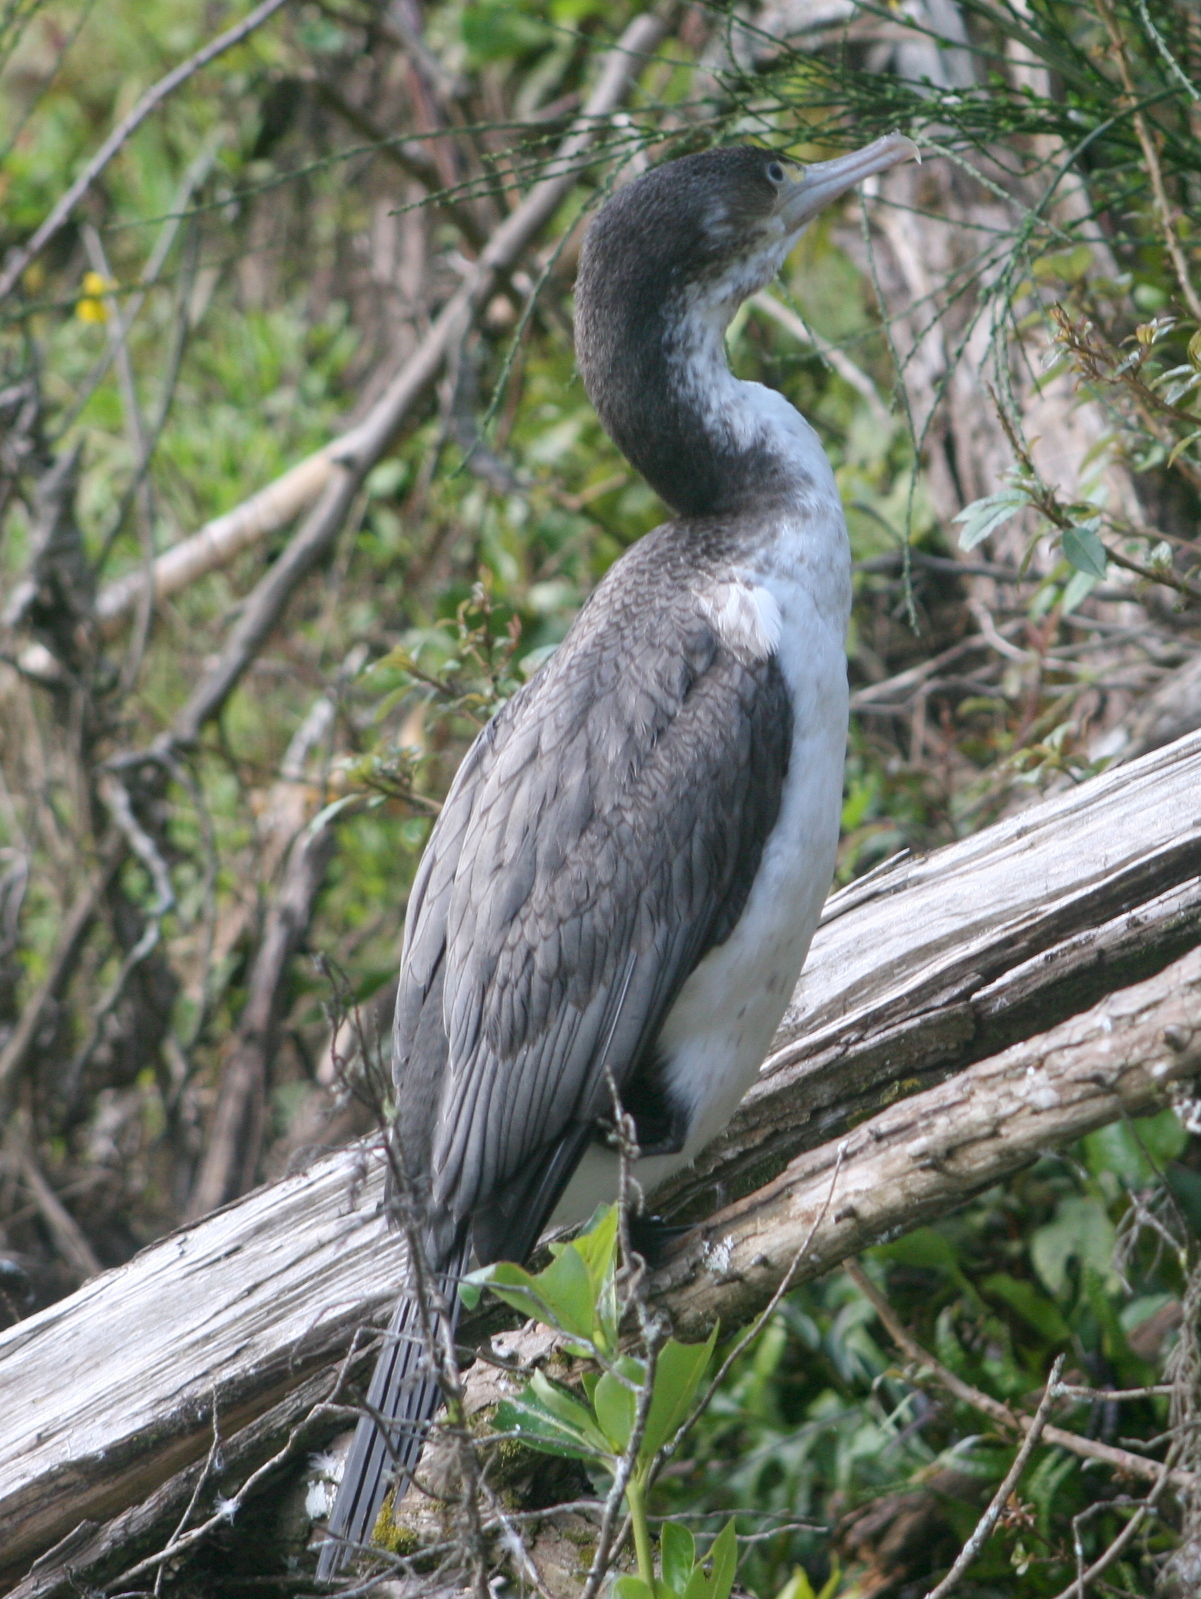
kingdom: Animalia
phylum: Chordata
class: Aves
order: Suliformes
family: Phalacrocoracidae
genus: Phalacrocorax
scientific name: Phalacrocorax varius
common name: Pied cormorant
